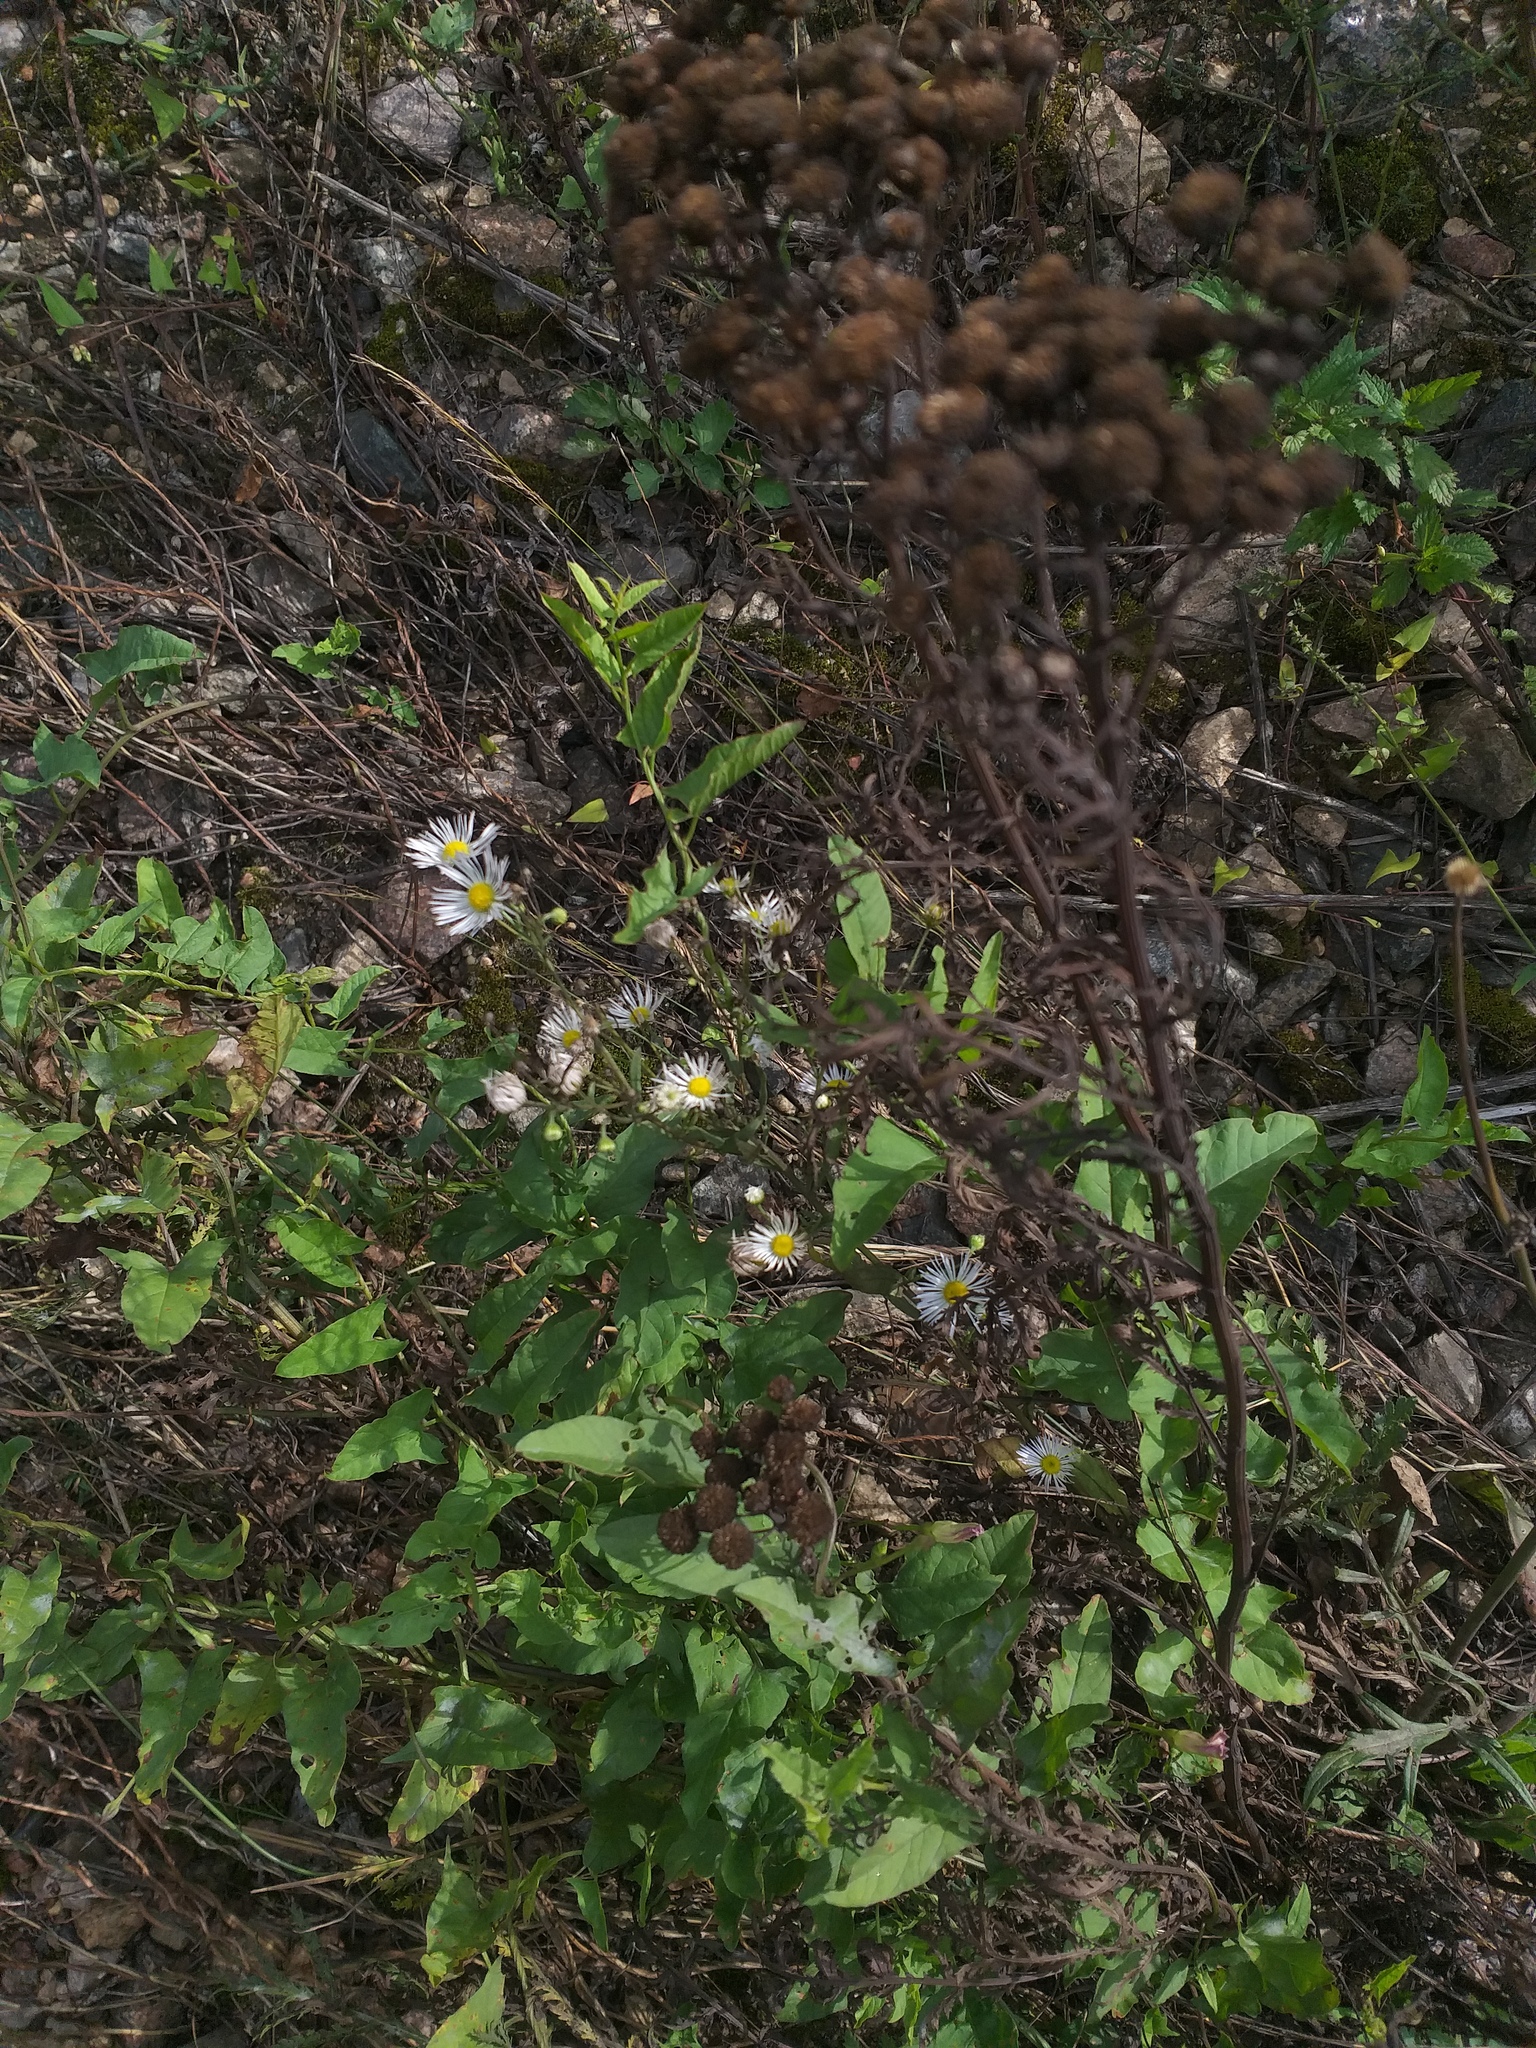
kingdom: Plantae
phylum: Tracheophyta
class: Magnoliopsida
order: Asterales
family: Asteraceae
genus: Erigeron
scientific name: Erigeron annuus
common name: Tall fleabane
